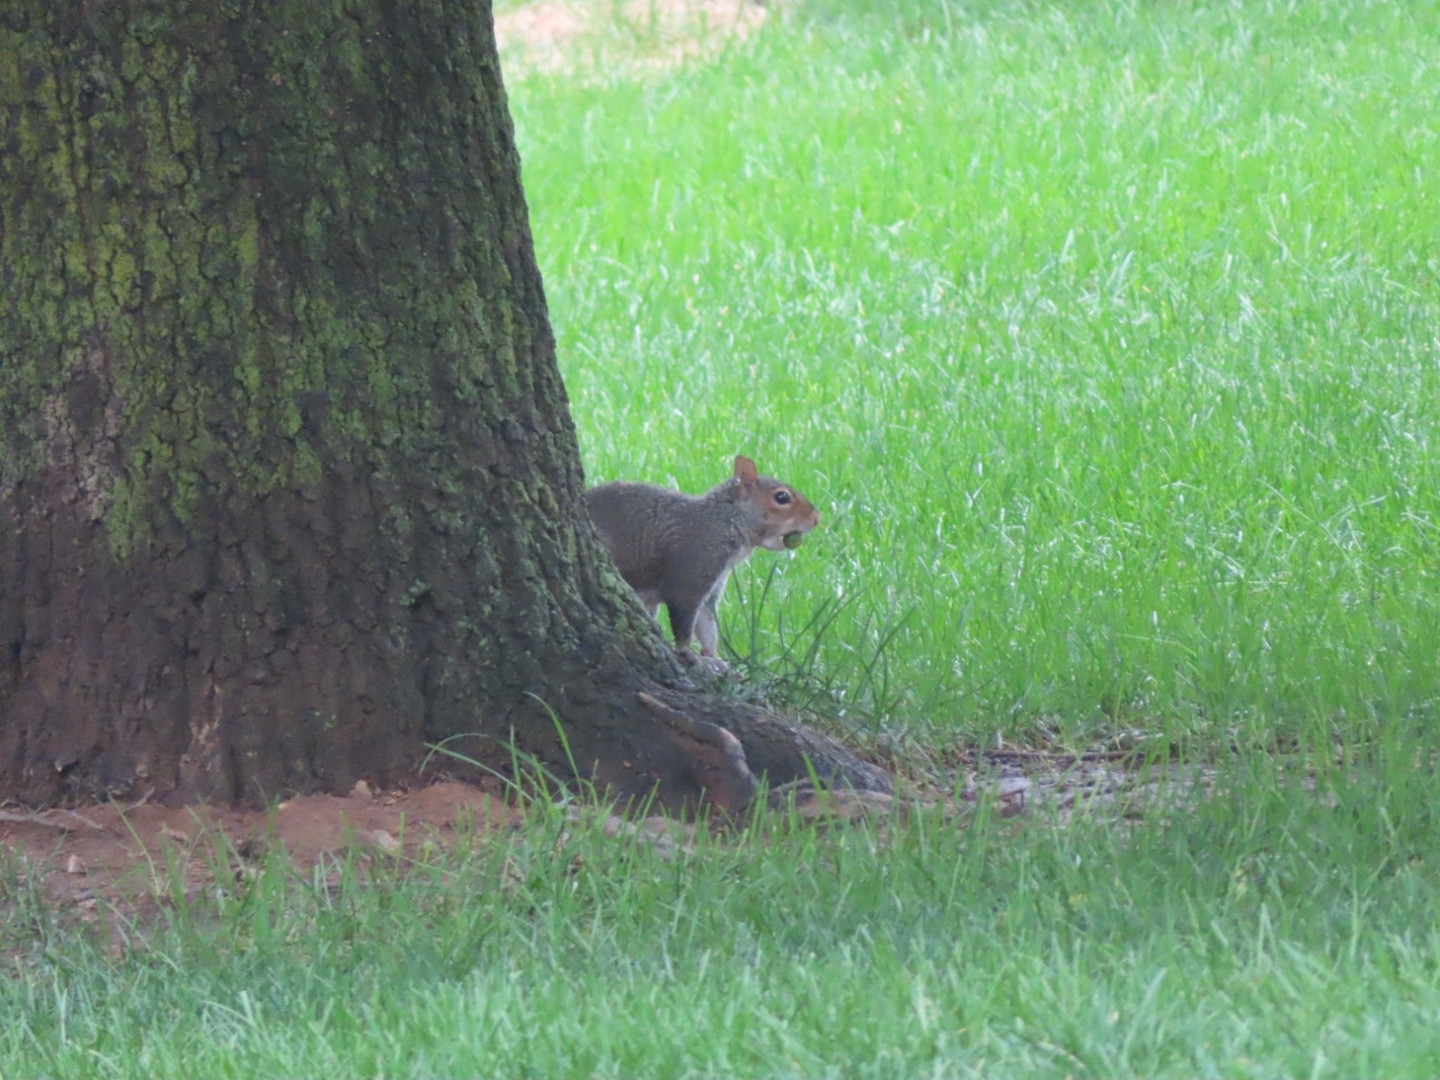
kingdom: Animalia
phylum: Chordata
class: Mammalia
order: Rodentia
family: Sciuridae
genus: Sciurus
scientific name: Sciurus carolinensis
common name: Eastern gray squirrel
